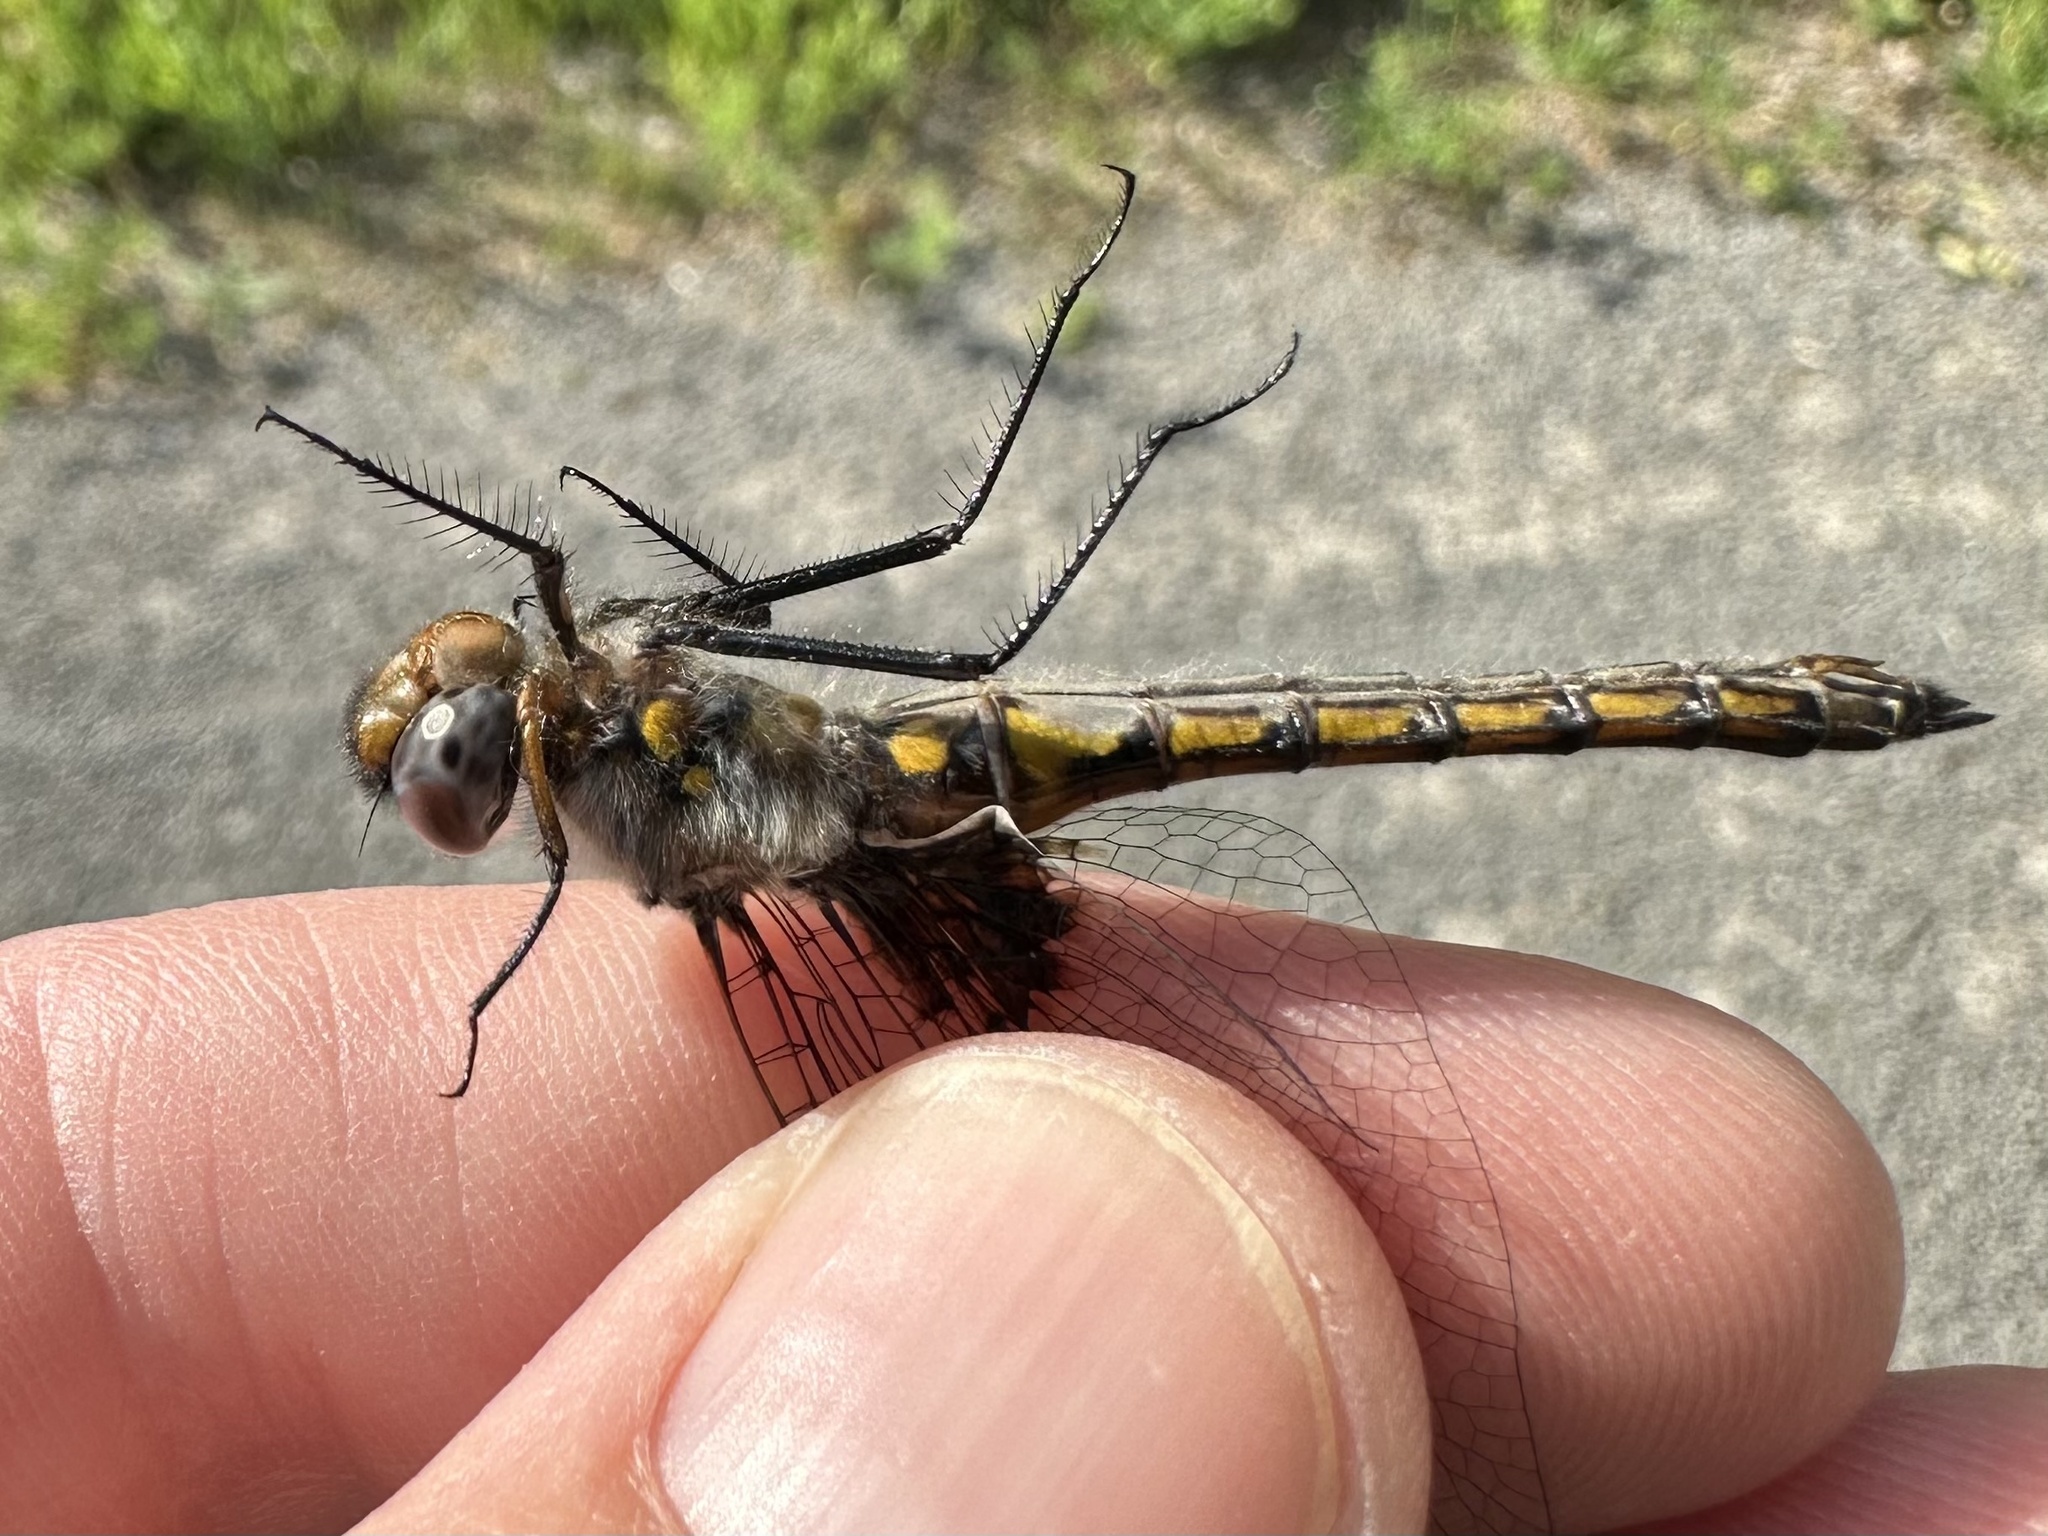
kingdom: Animalia
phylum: Arthropoda
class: Insecta
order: Odonata
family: Corduliidae
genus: Epitheca
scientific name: Epitheca cynosura
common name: Common baskettail
